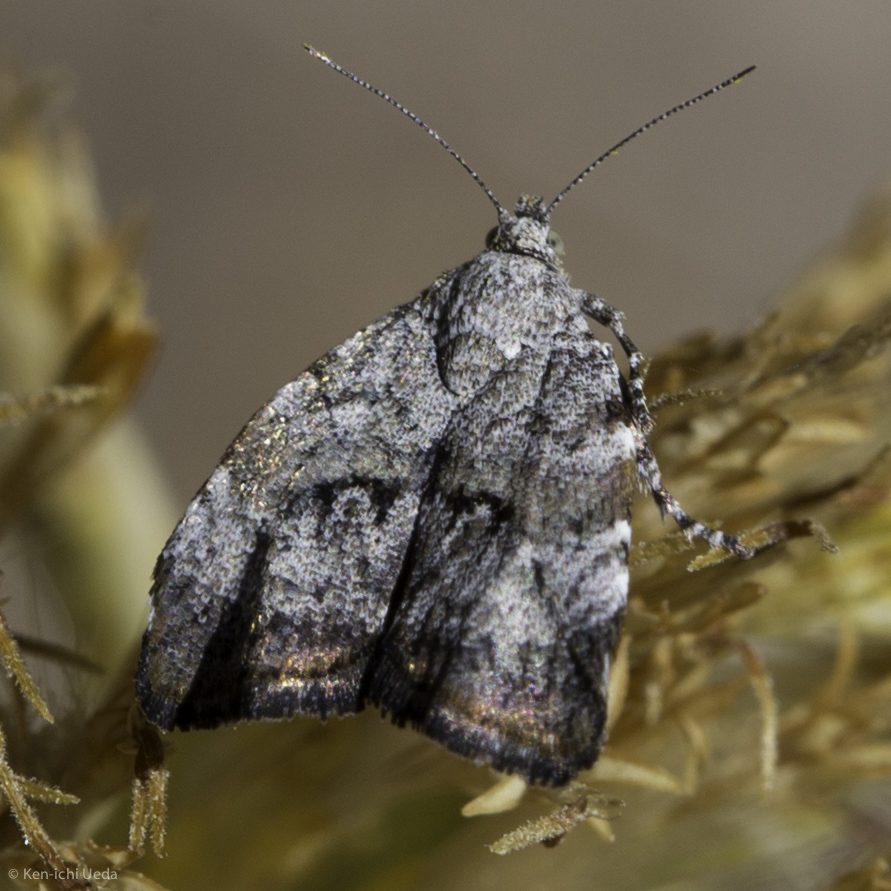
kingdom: Animalia
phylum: Arthropoda
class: Insecta
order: Lepidoptera
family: Choreutidae
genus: Choreutis
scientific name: Choreutis diana
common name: Inverness twitcher
